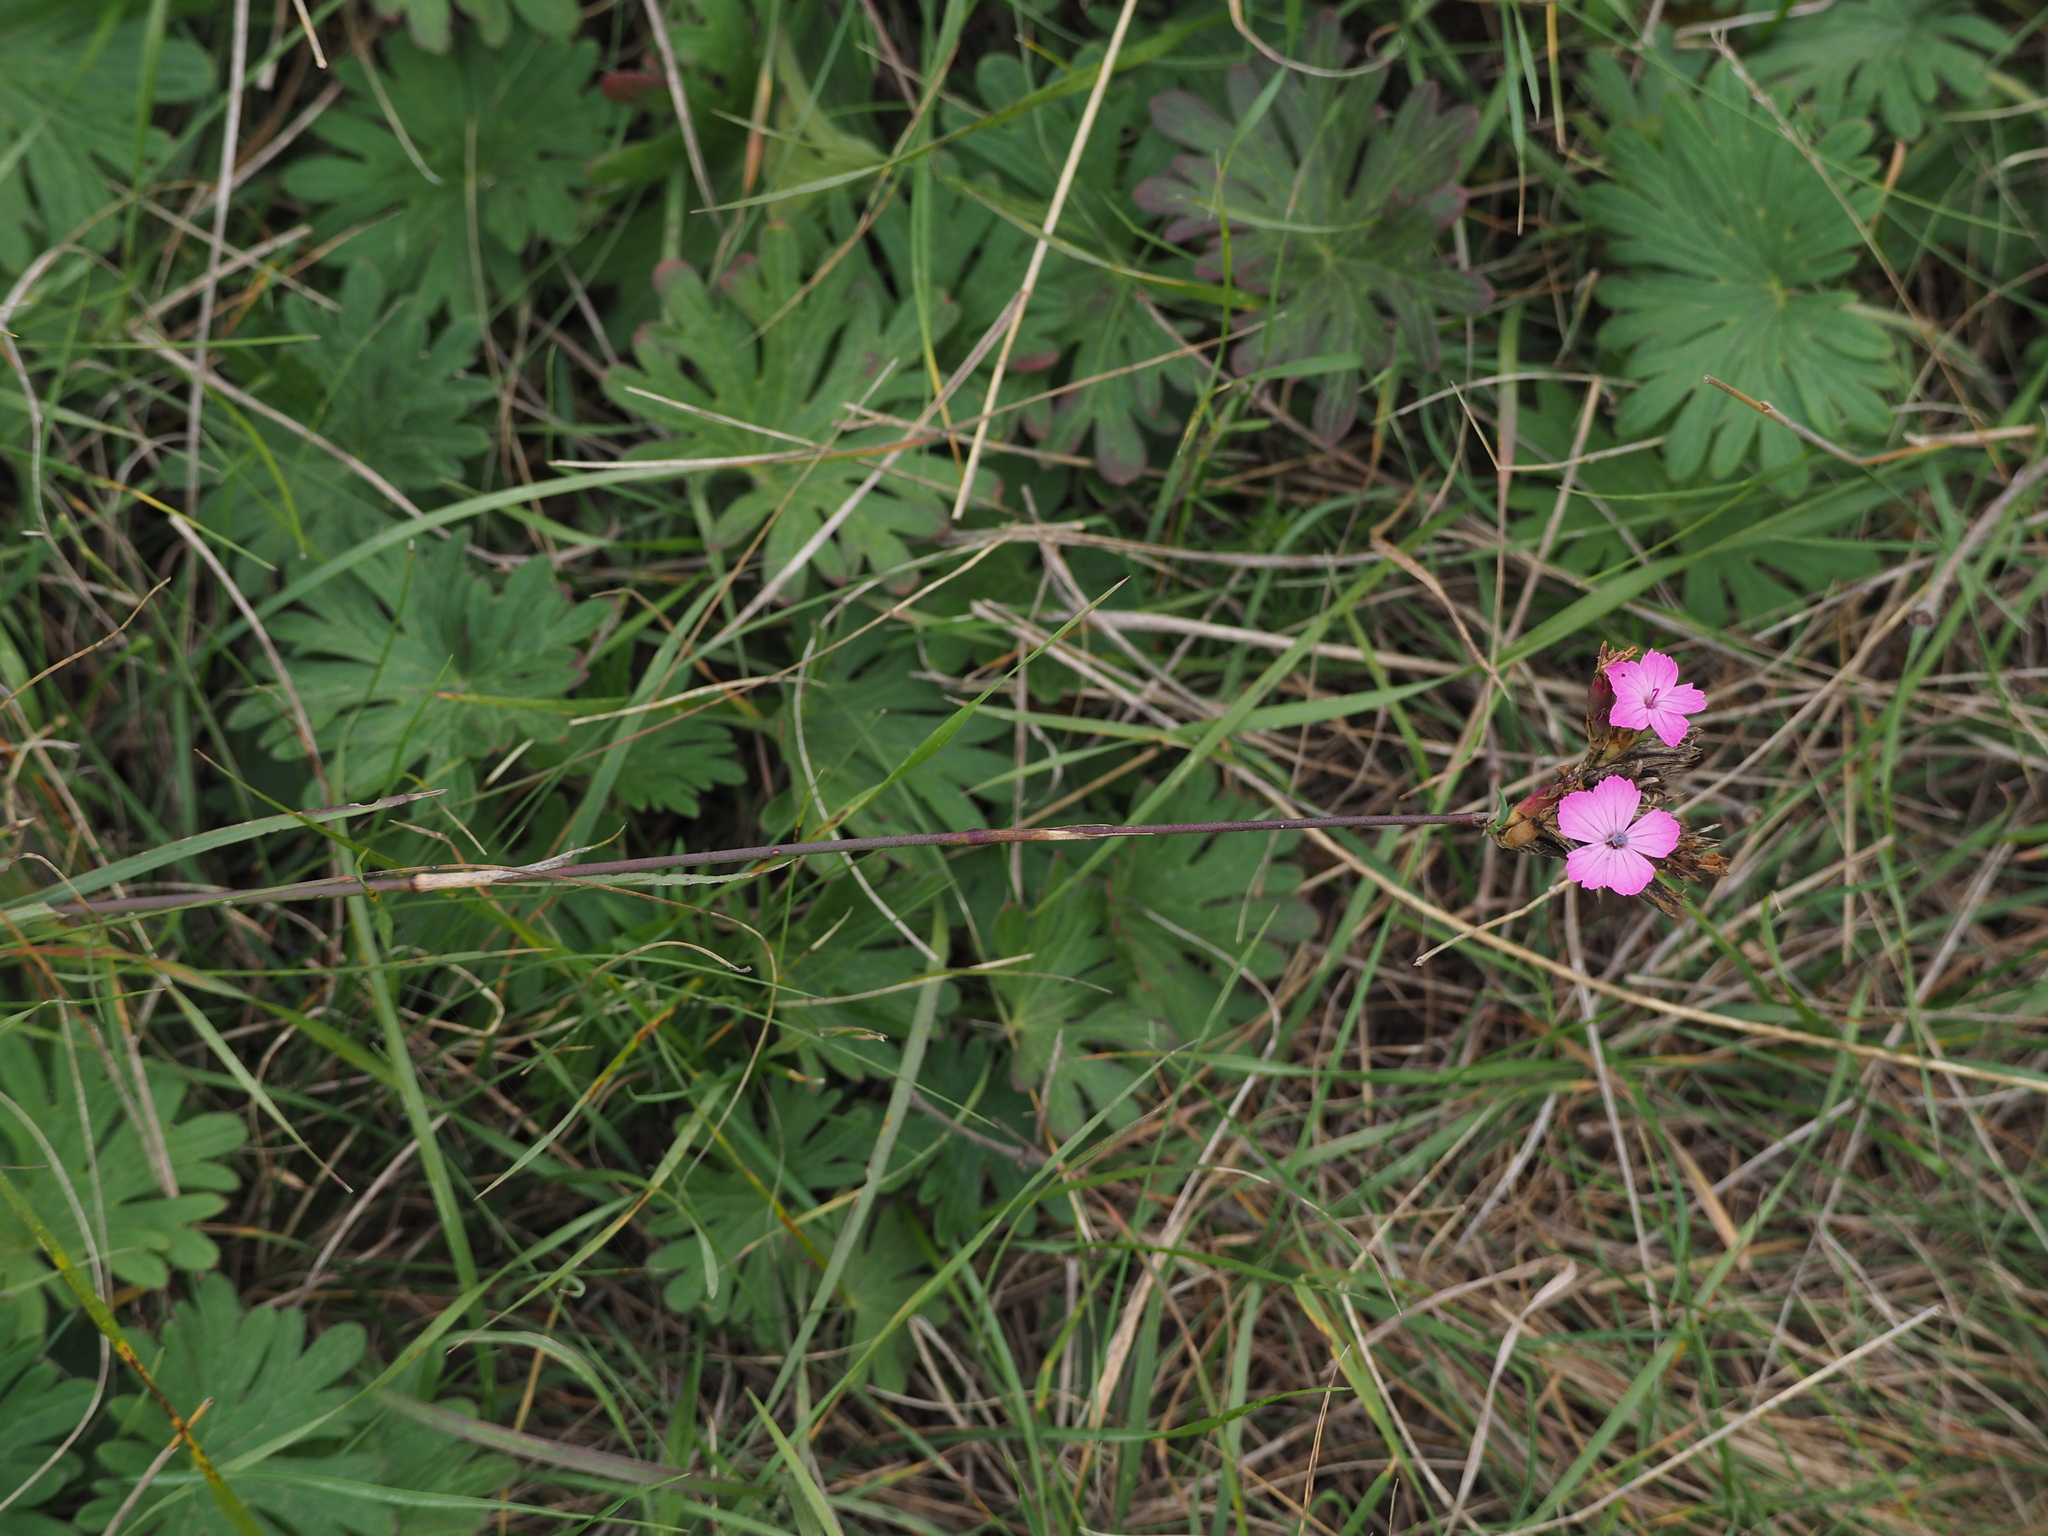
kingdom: Plantae
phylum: Tracheophyta
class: Magnoliopsida
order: Caryophyllales
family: Caryophyllaceae
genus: Dianthus
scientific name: Dianthus carthusianorum
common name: Carthusian pink
